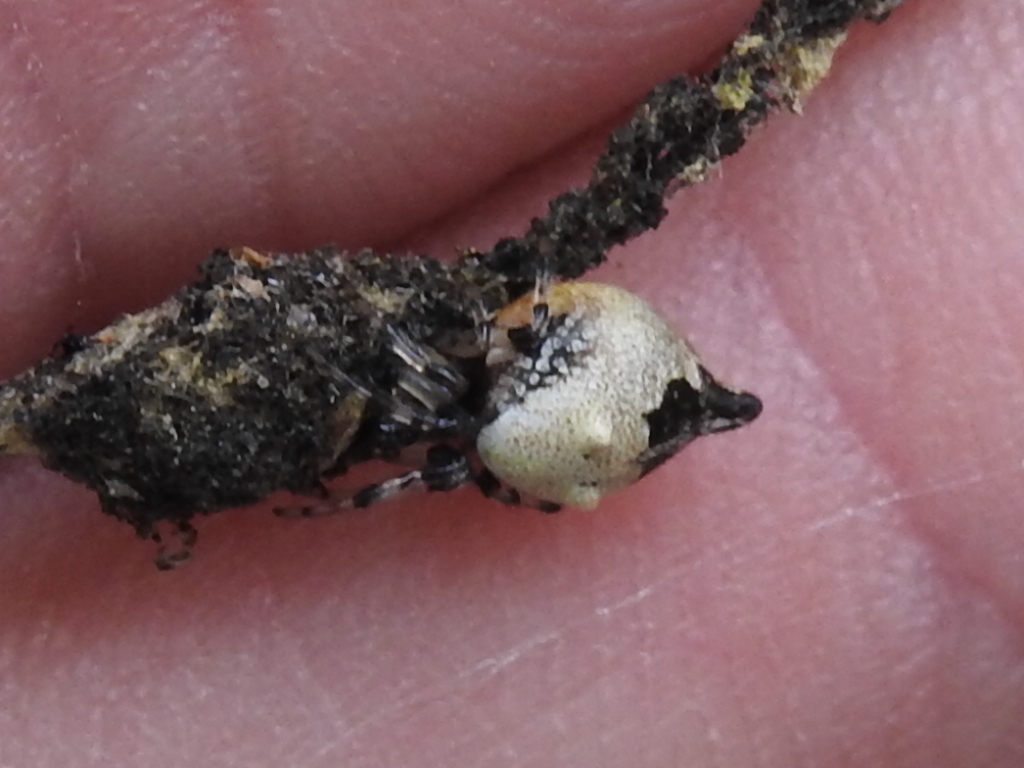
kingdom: Animalia
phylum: Arthropoda
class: Arachnida
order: Araneae
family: Araneidae
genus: Cyclosa
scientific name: Cyclosa turbinata
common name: Orb weavers
